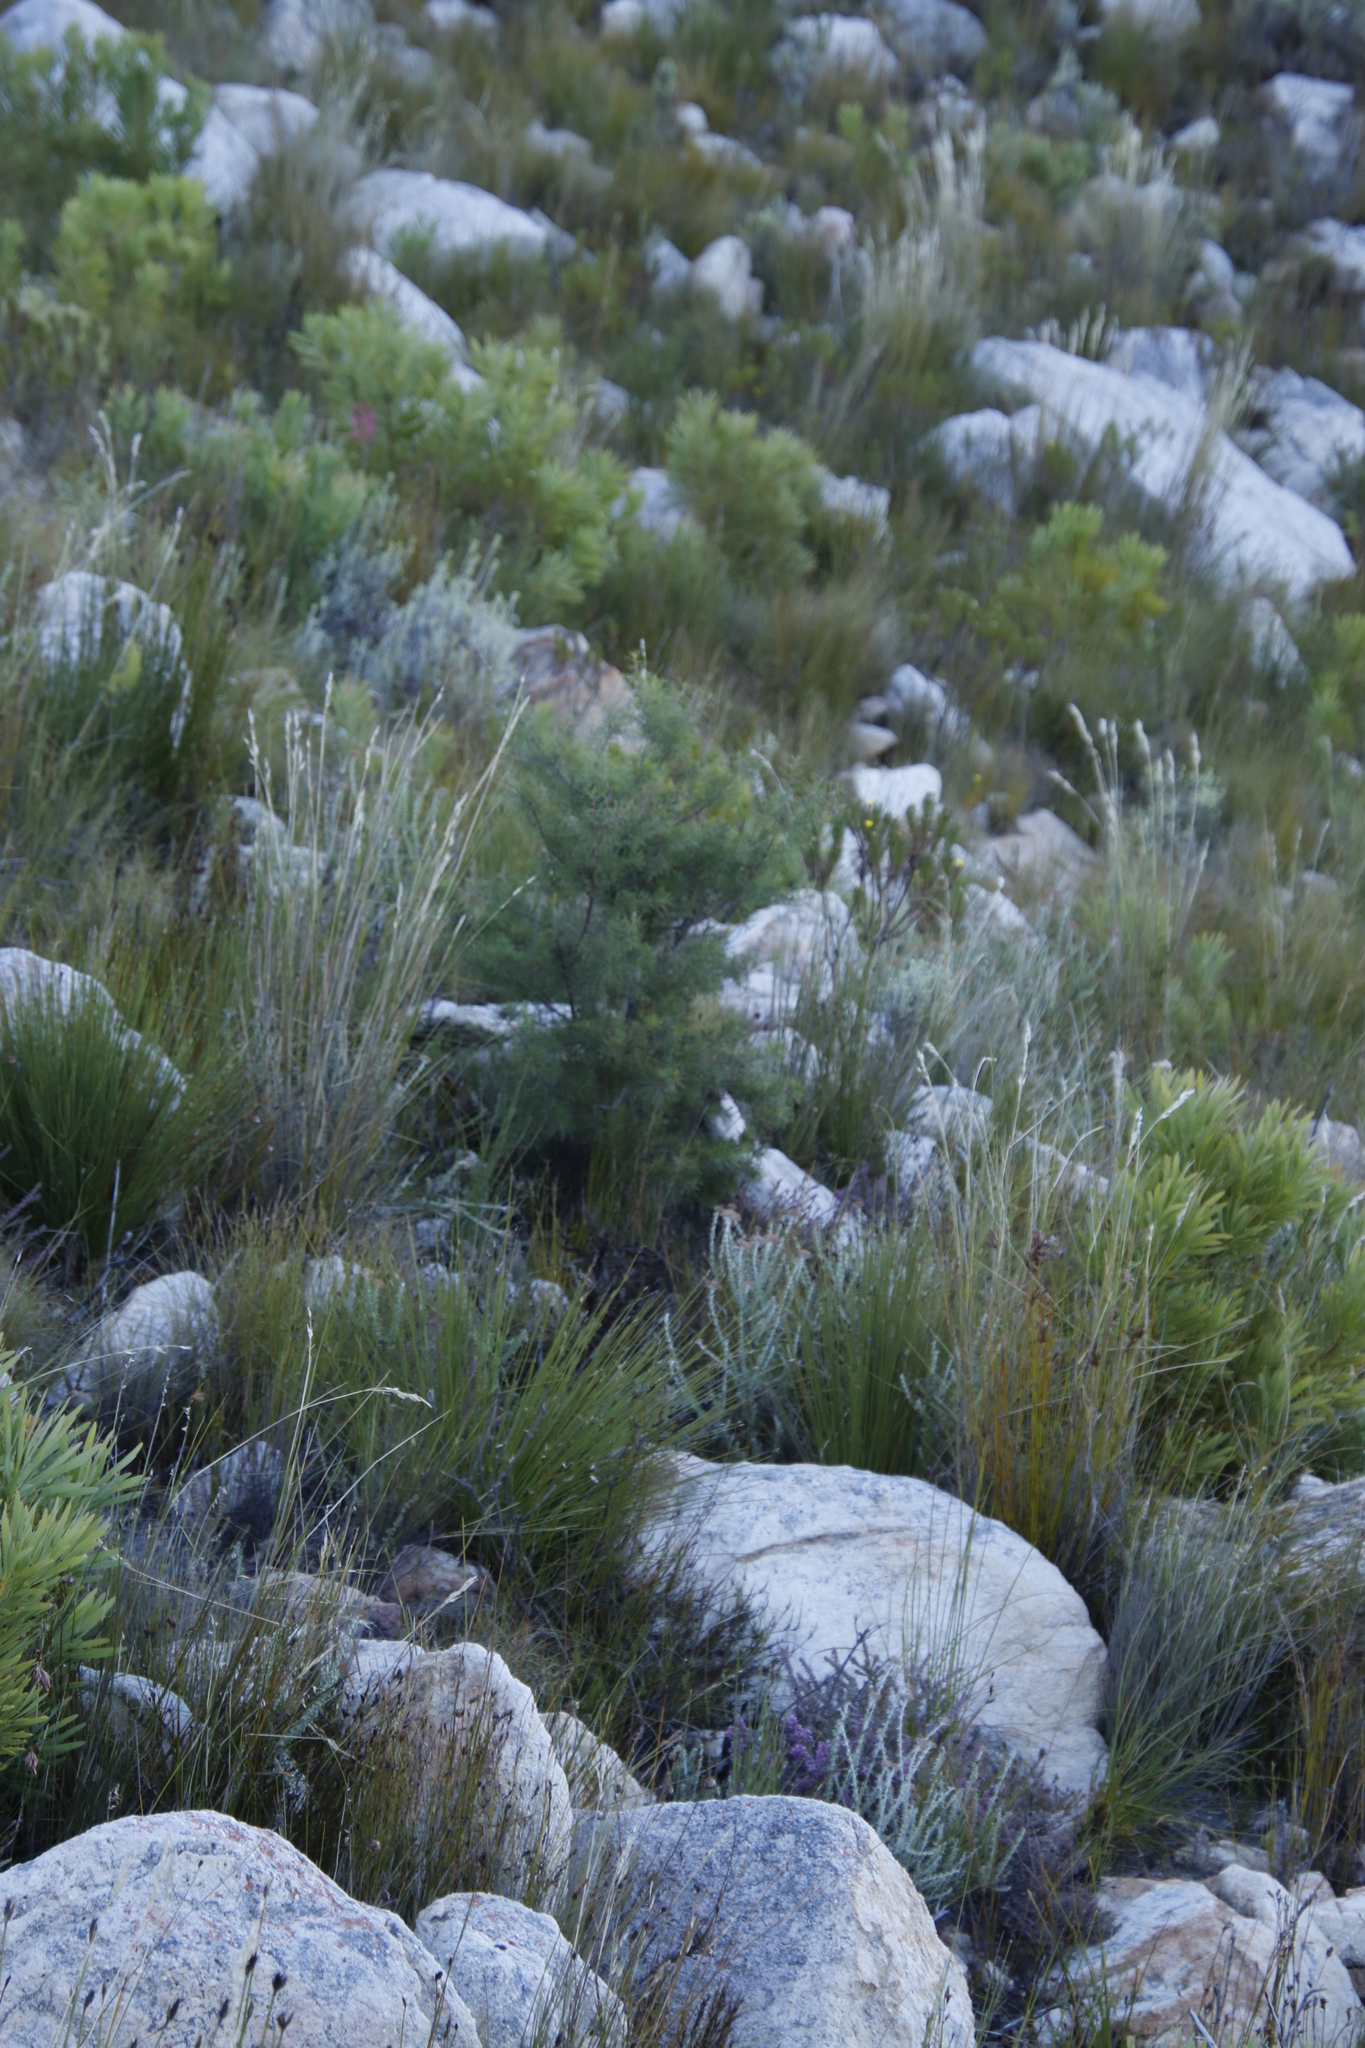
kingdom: Plantae
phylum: Tracheophyta
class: Magnoliopsida
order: Proteales
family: Proteaceae
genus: Hakea
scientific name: Hakea sericea
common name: Needle bush
